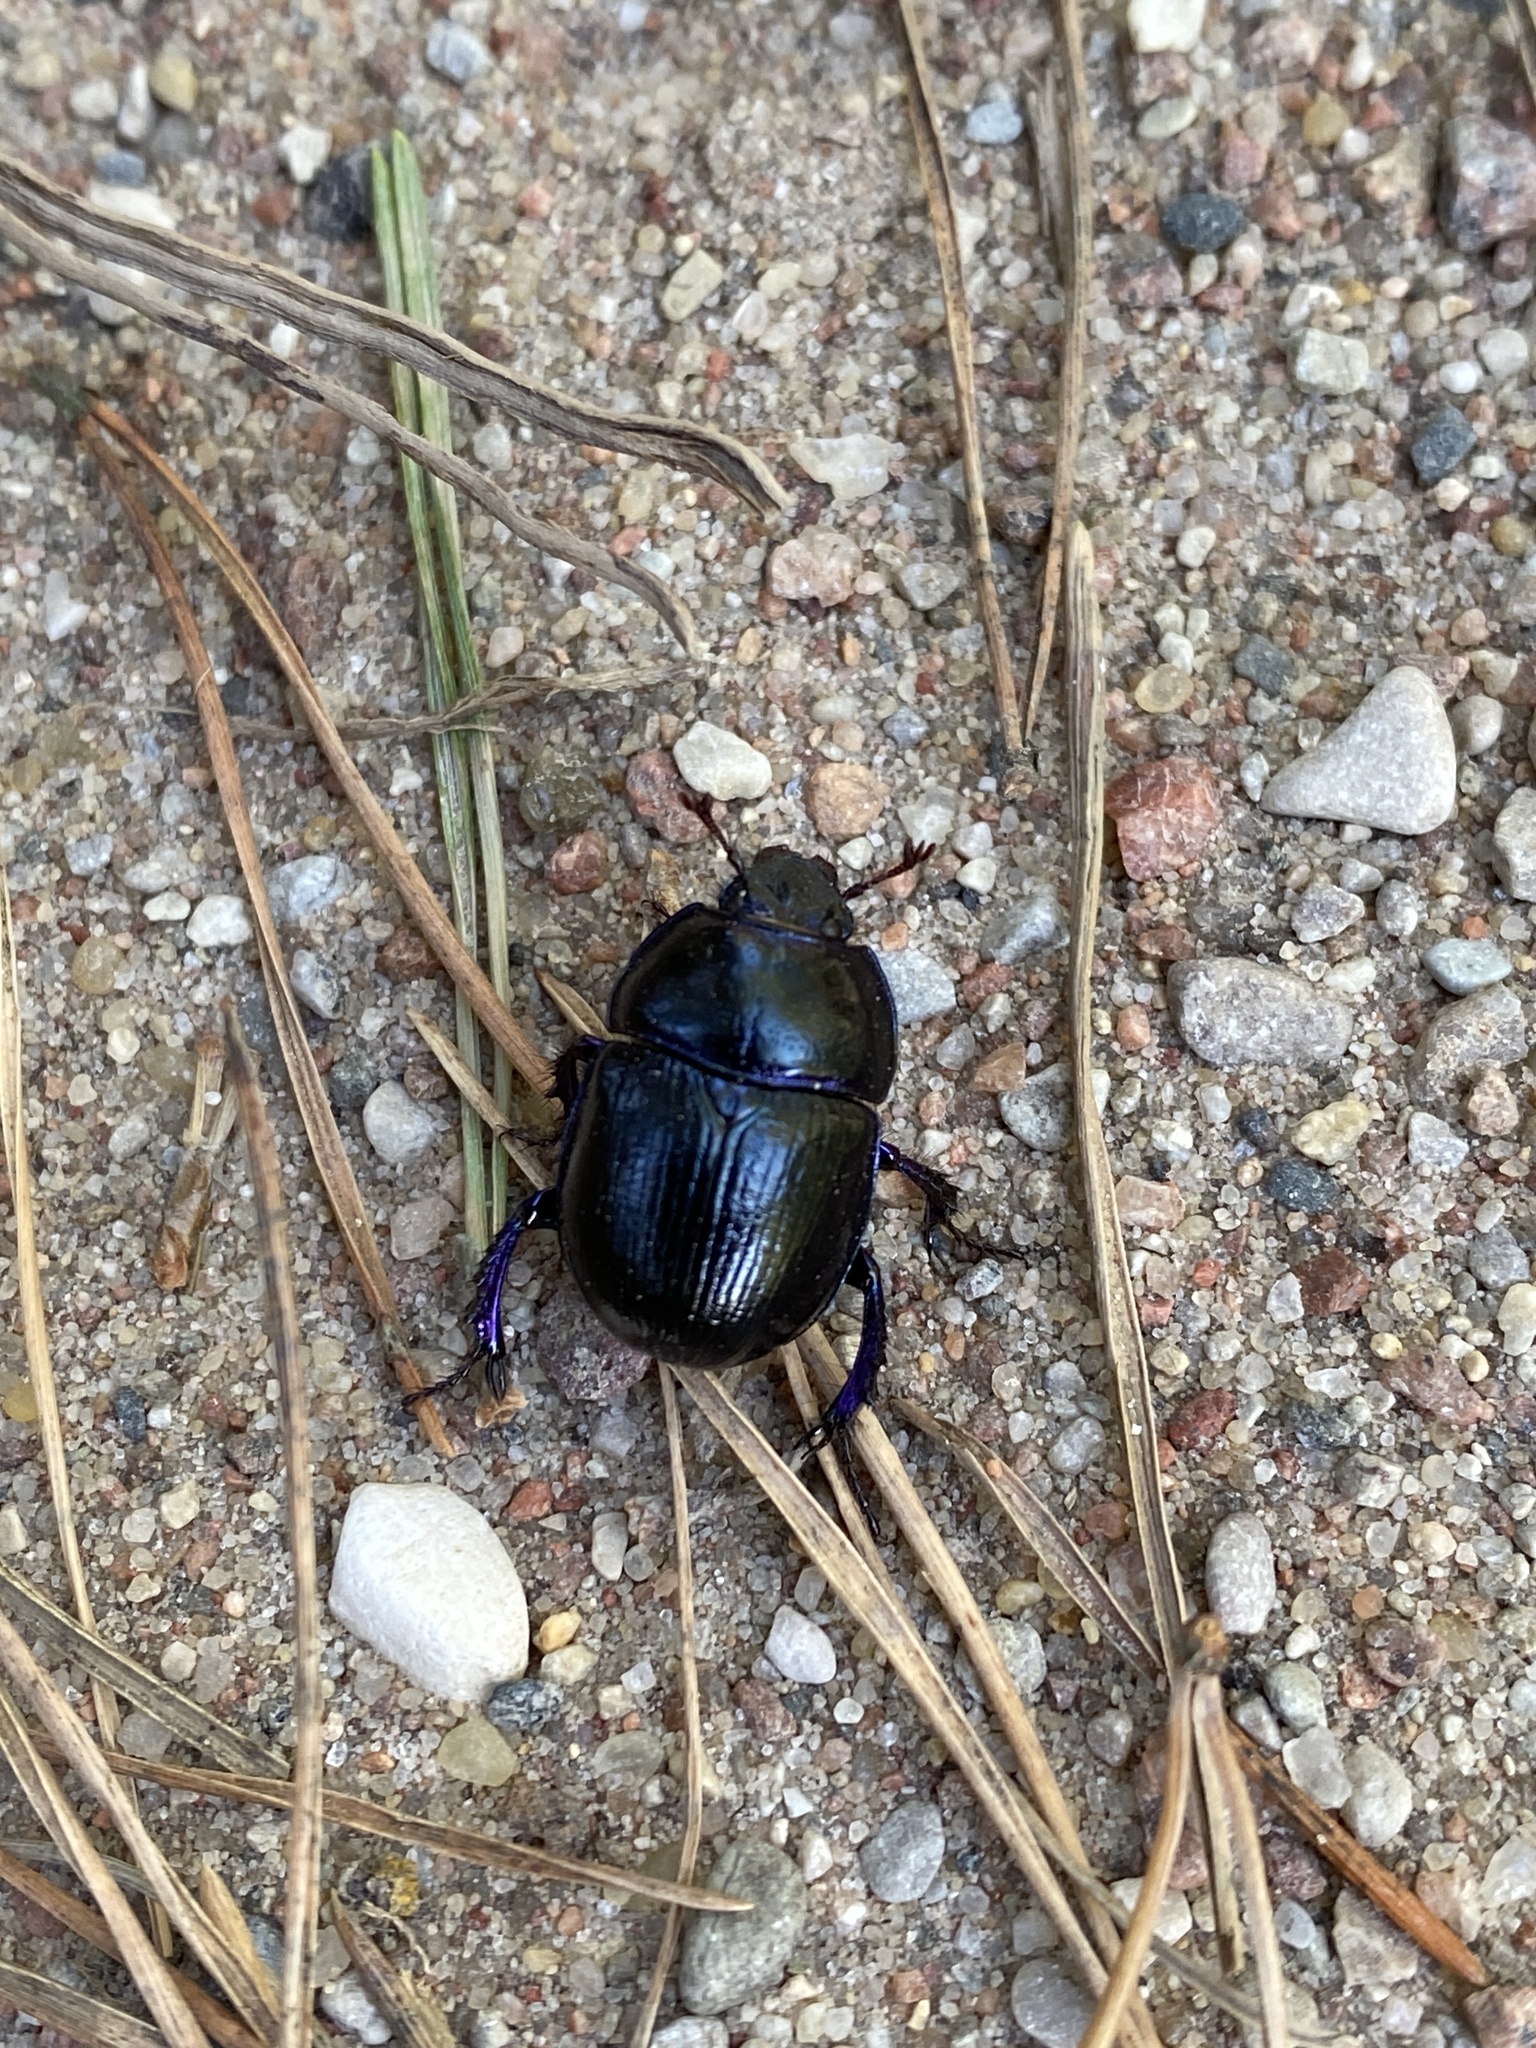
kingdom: Animalia
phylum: Arthropoda
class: Insecta
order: Coleoptera
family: Geotrupidae
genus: Anoplotrupes
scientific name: Anoplotrupes stercorosus
